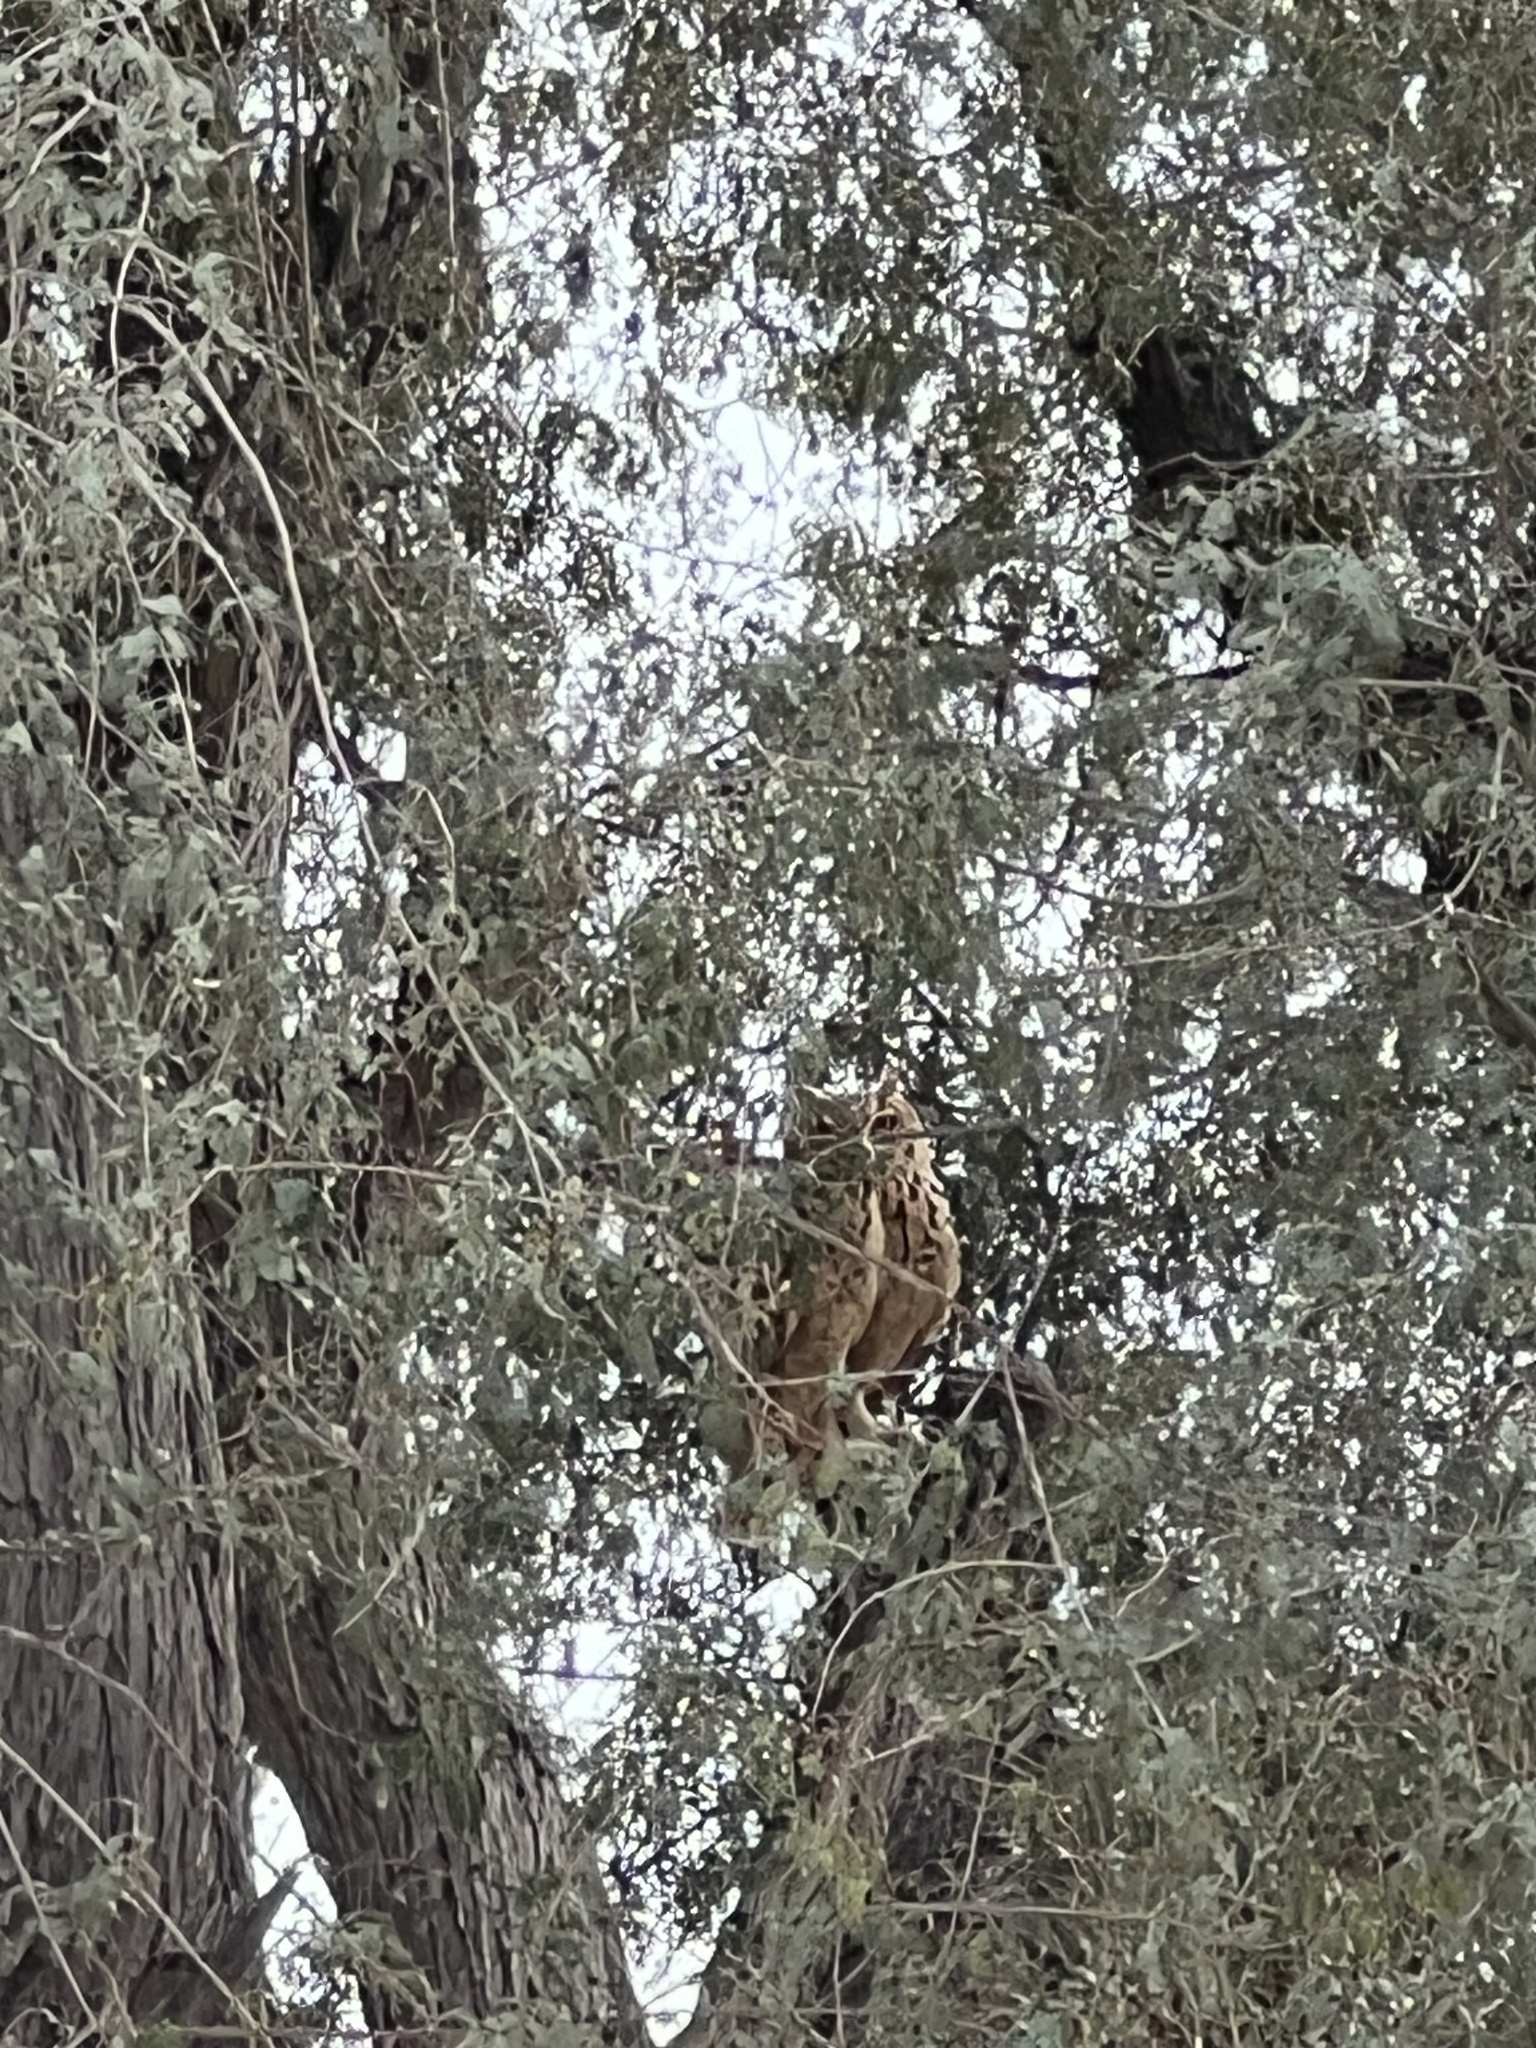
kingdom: Animalia
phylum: Chordata
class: Aves
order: Strigiformes
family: Strigidae
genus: Bubo
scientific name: Bubo ascalaphus
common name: Pharaoh eagle-owl
